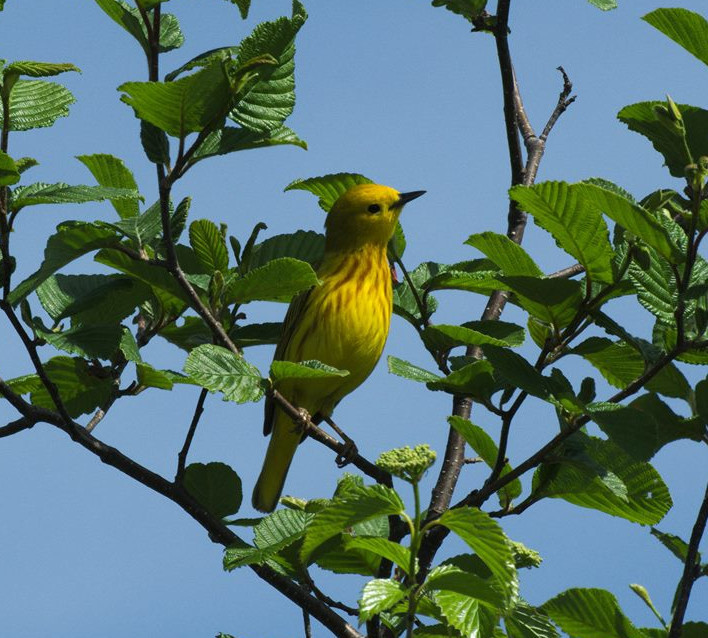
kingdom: Animalia
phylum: Chordata
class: Aves
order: Passeriformes
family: Parulidae
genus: Setophaga
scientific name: Setophaga petechia
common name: Yellow warbler
